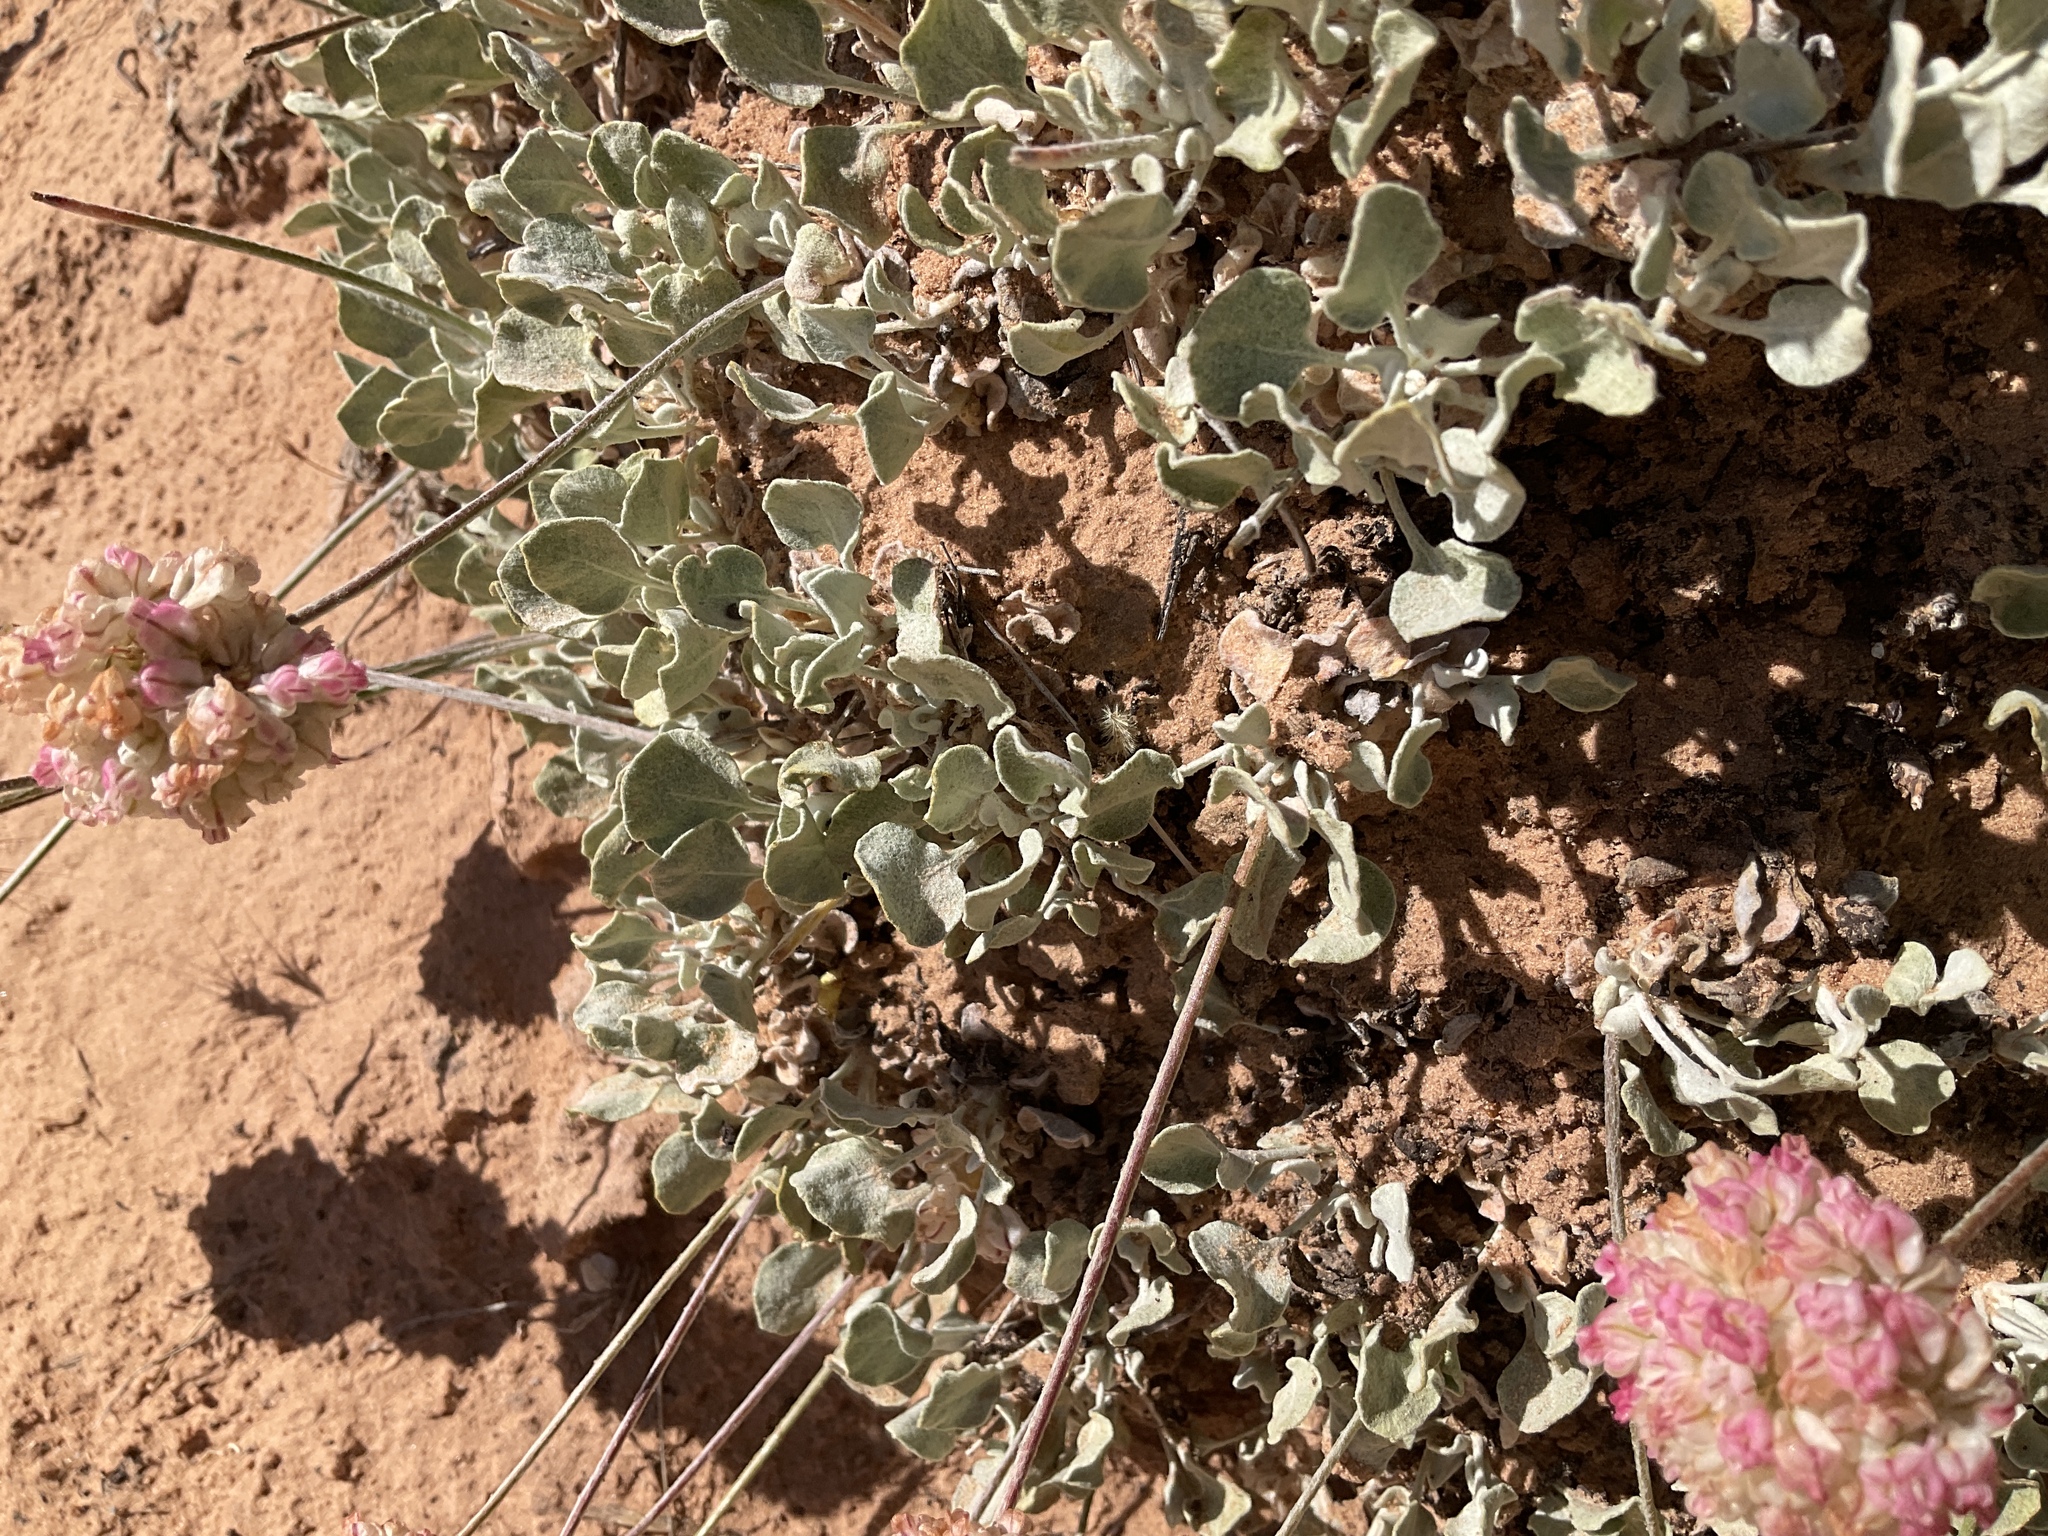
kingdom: Plantae
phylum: Tracheophyta
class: Magnoliopsida
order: Caryophyllales
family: Polygonaceae
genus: Eriogonum
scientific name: Eriogonum ovalifolium
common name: Cushion buckwheat
